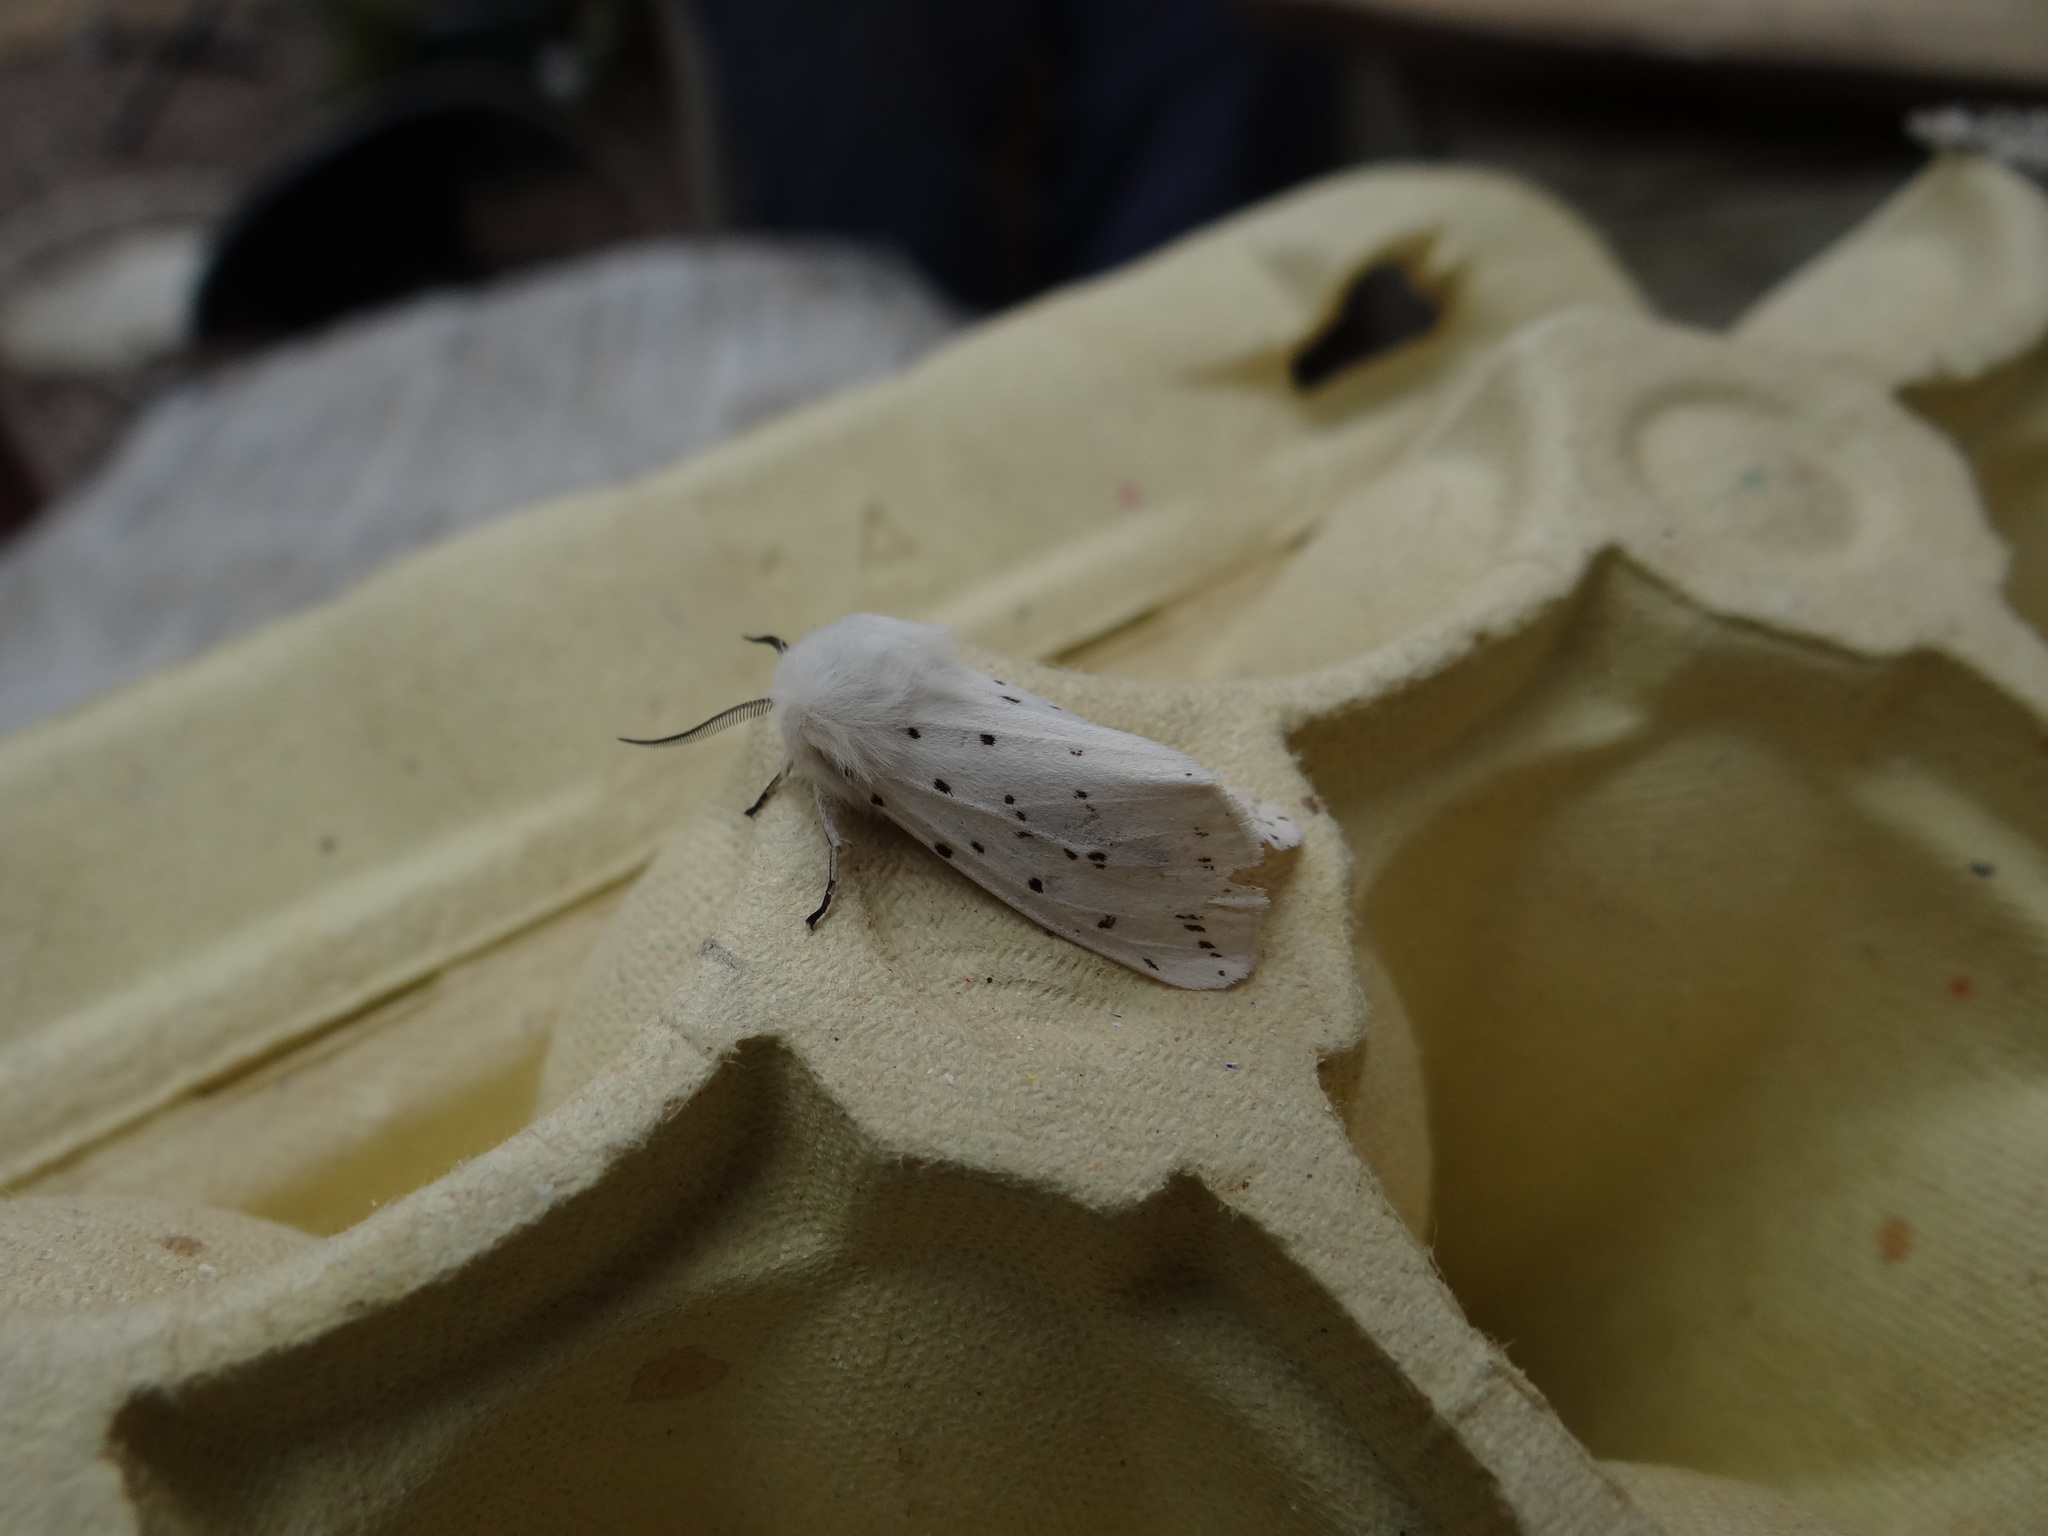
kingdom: Animalia
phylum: Arthropoda
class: Insecta
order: Lepidoptera
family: Erebidae
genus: Spilosoma
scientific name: Spilosoma lubricipeda
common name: White ermine
